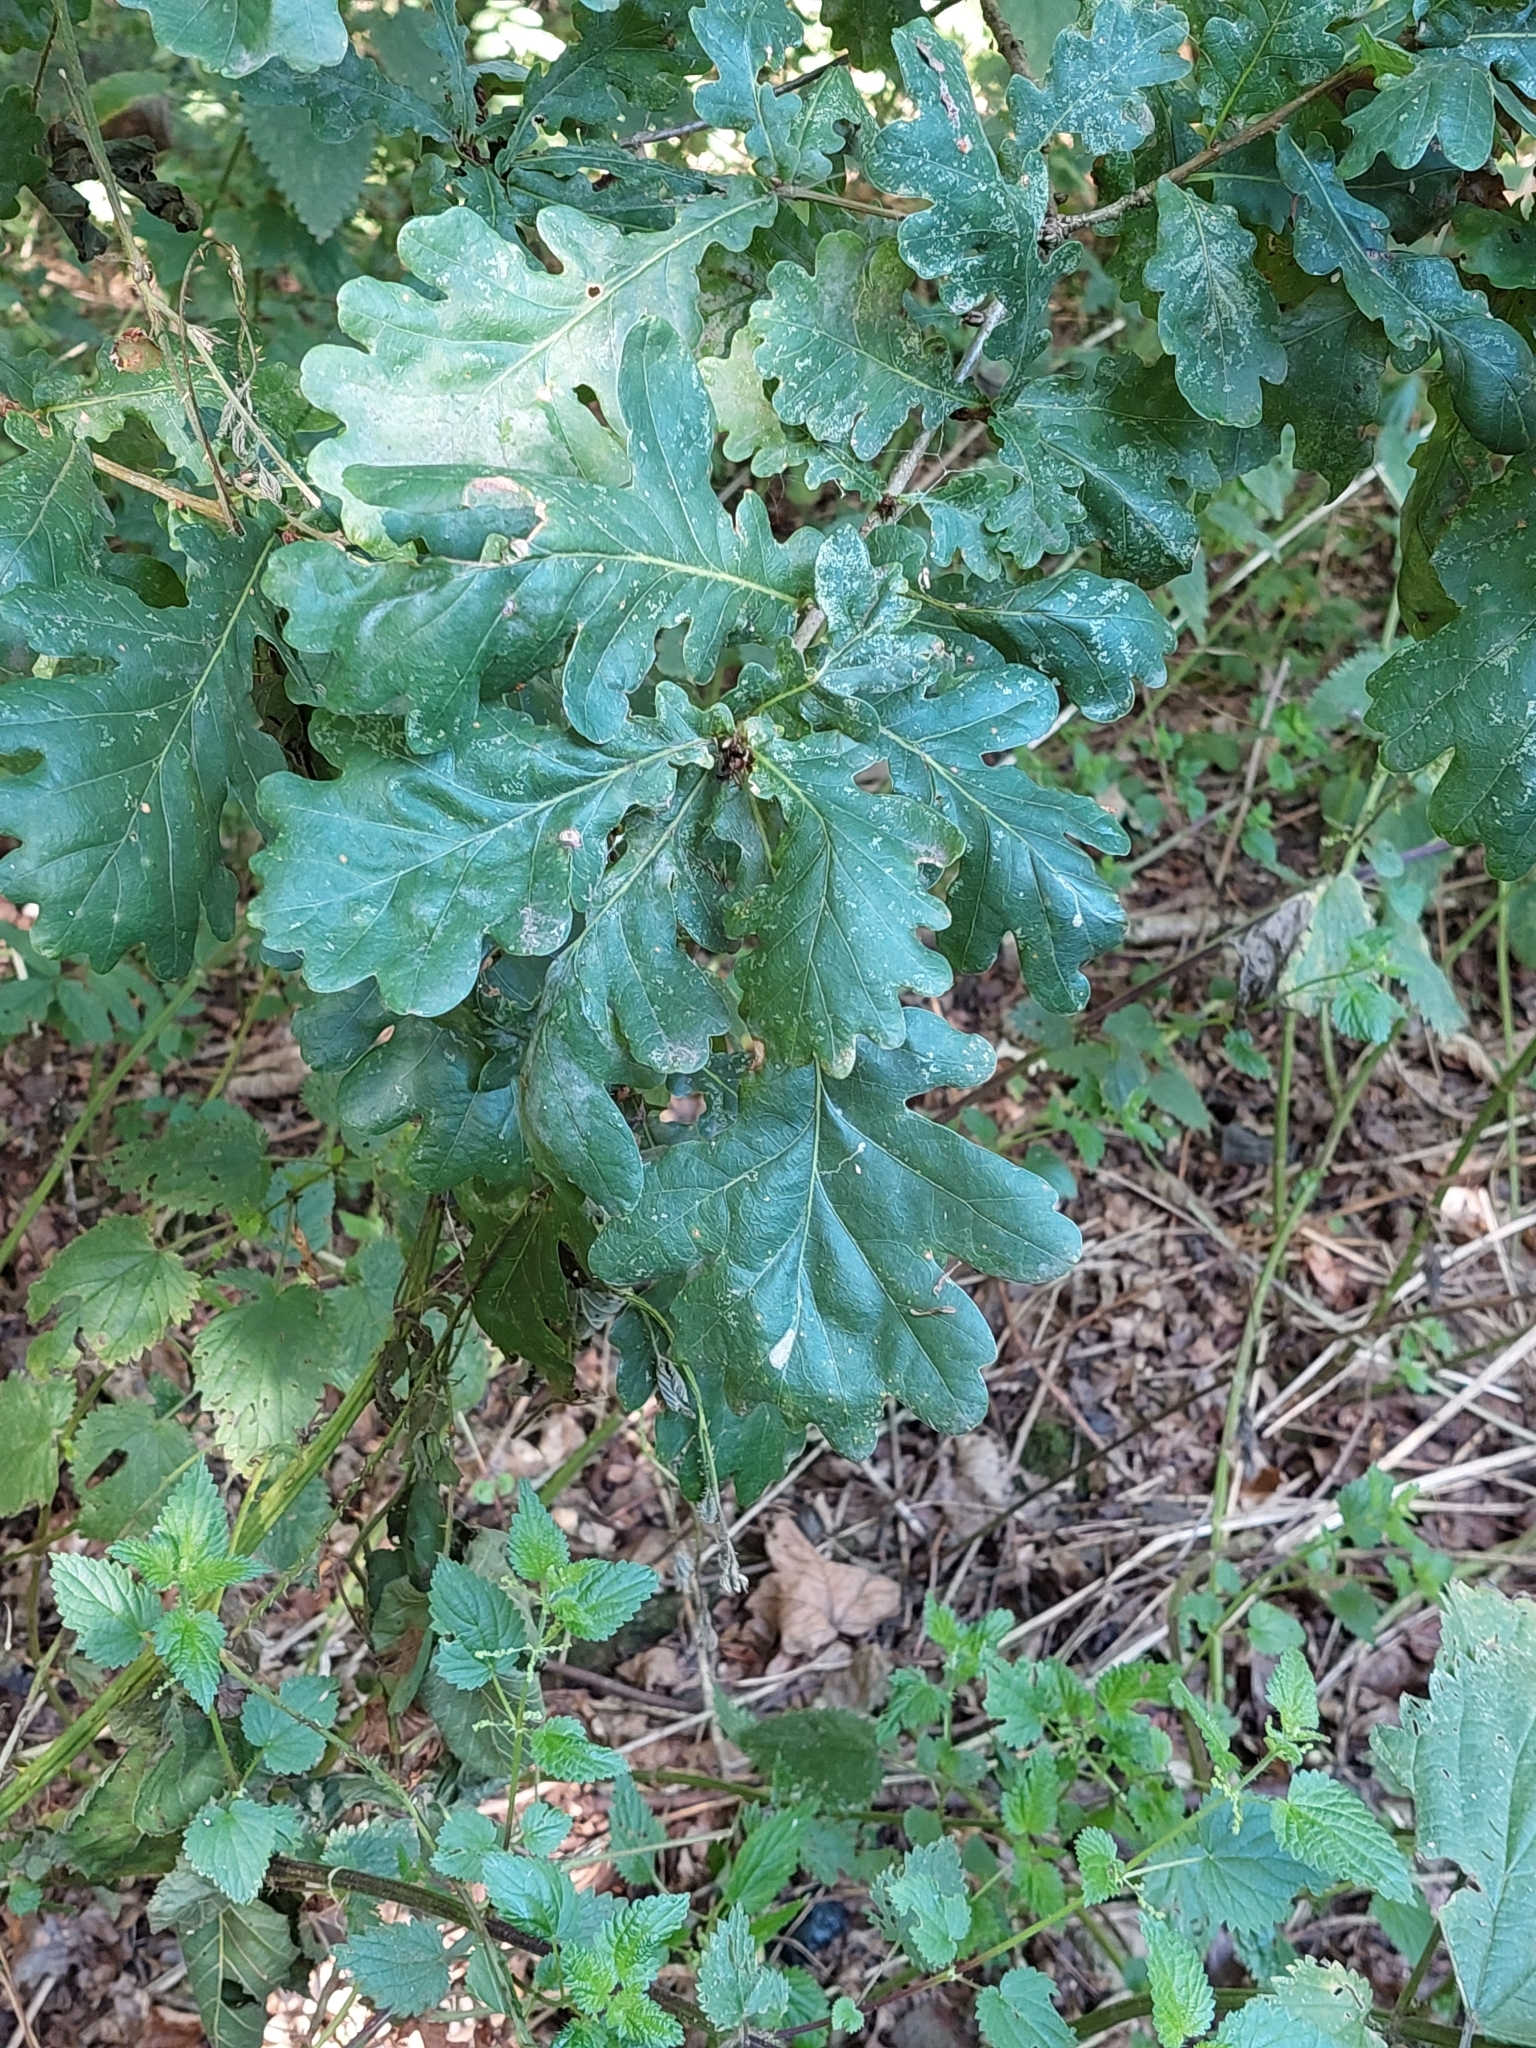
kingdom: Plantae
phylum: Tracheophyta
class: Magnoliopsida
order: Fagales
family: Fagaceae
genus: Quercus
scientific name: Quercus robur
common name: Pedunculate oak
